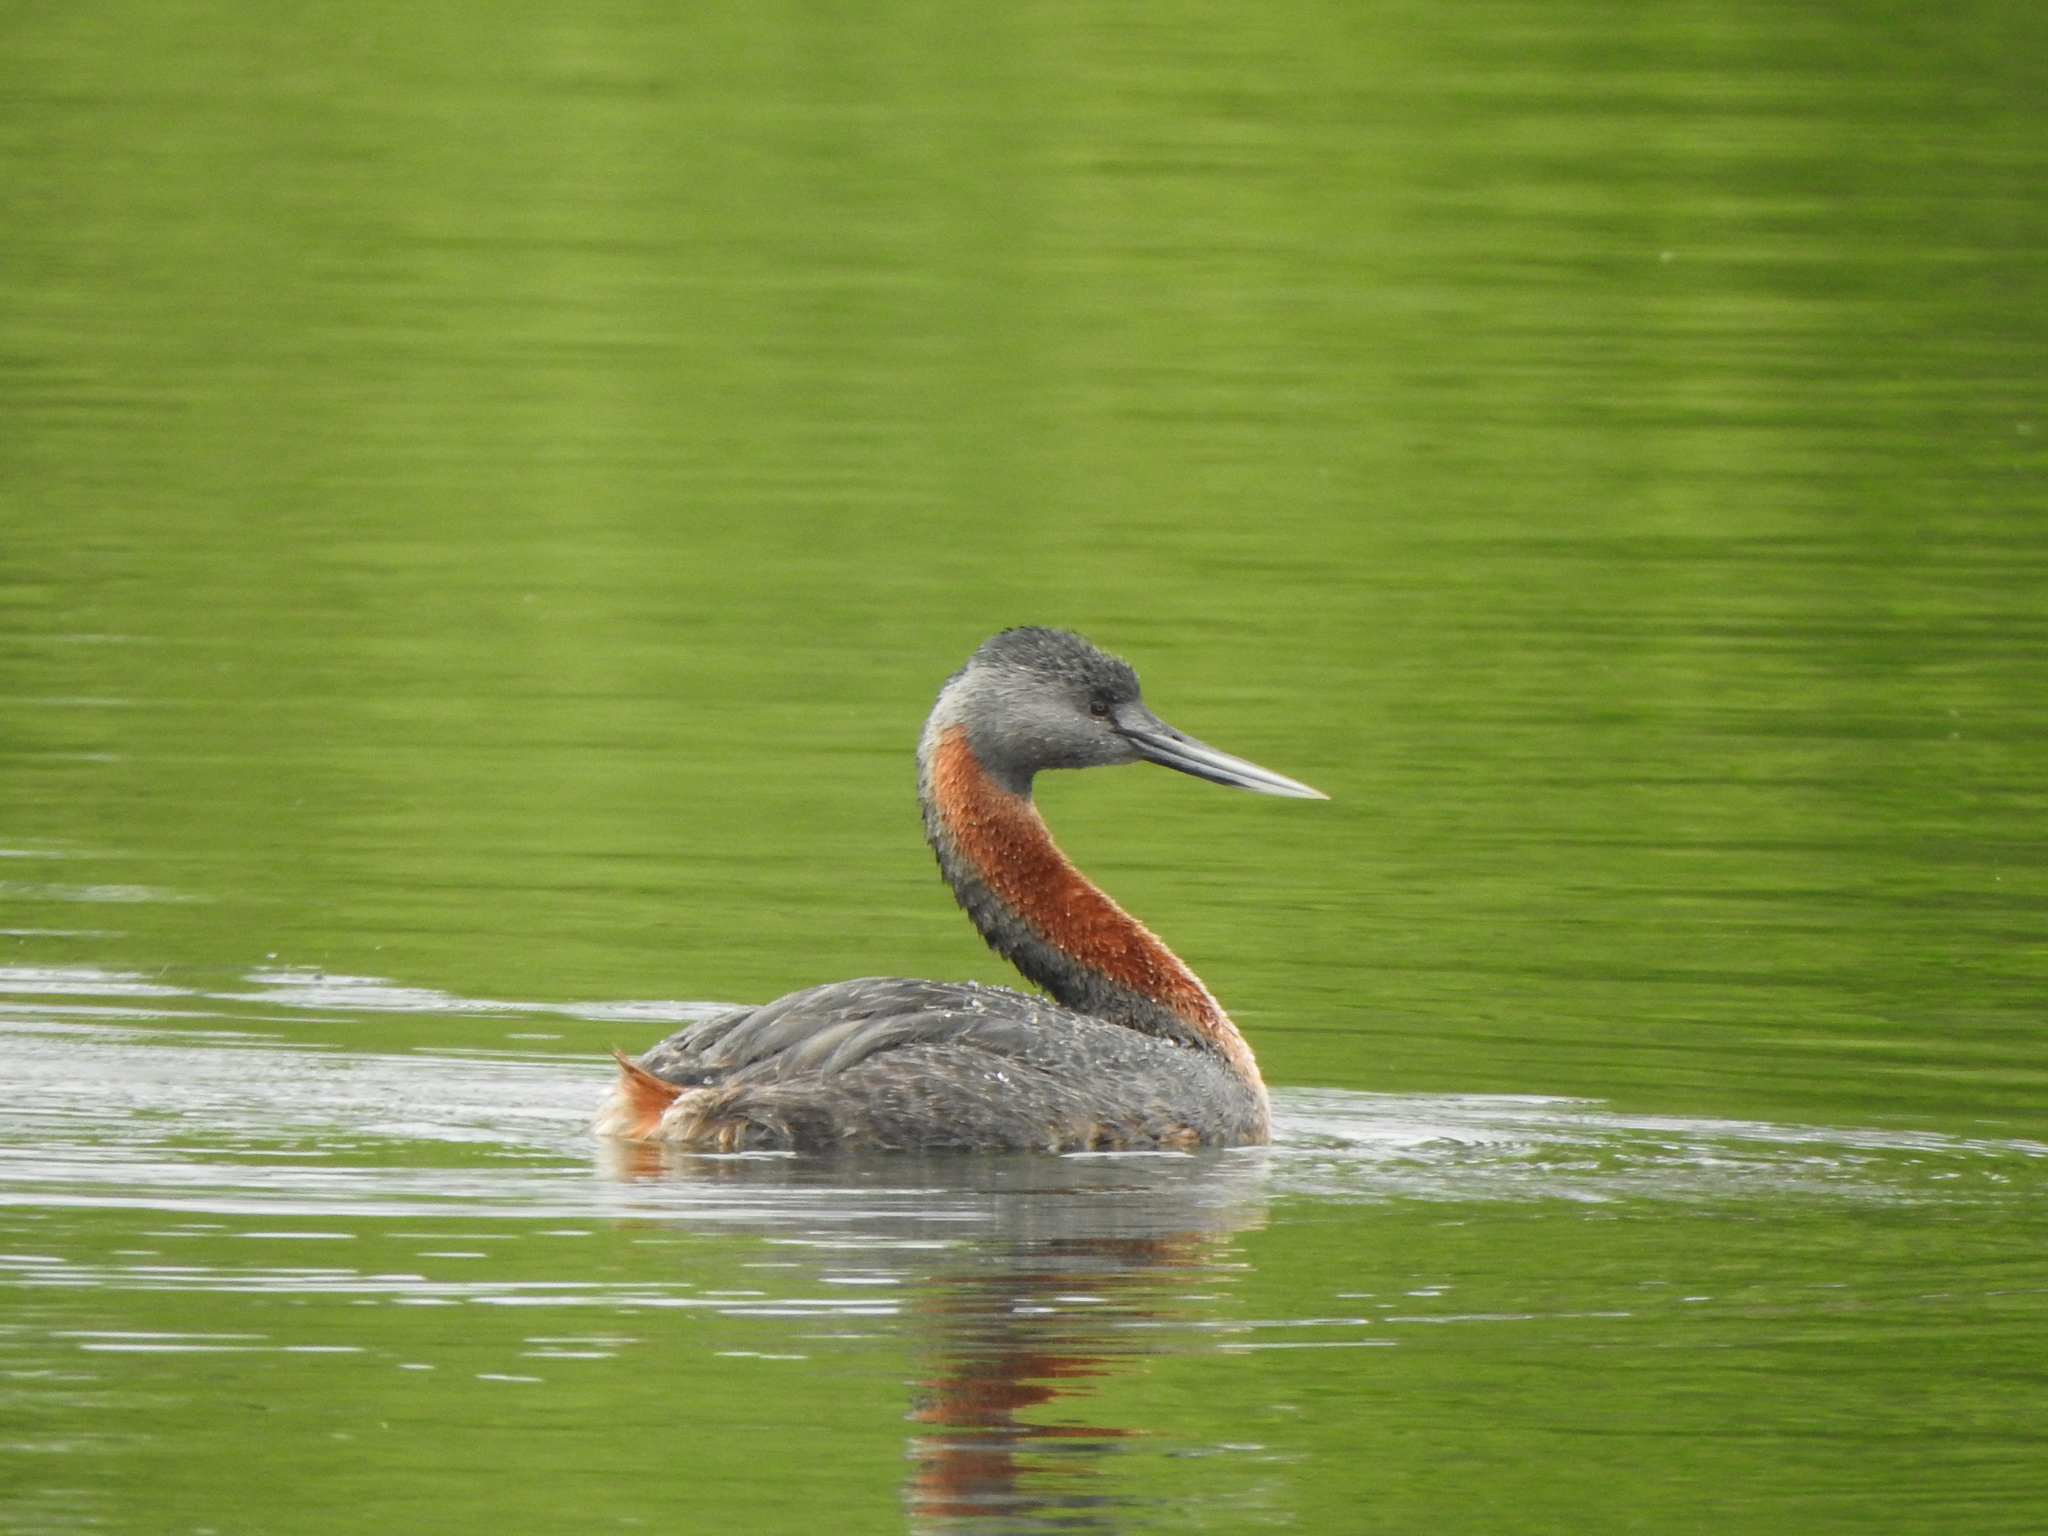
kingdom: Animalia
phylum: Chordata
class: Aves
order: Podicipediformes
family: Podicipedidae
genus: Podiceps
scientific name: Podiceps major
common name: Great grebe
